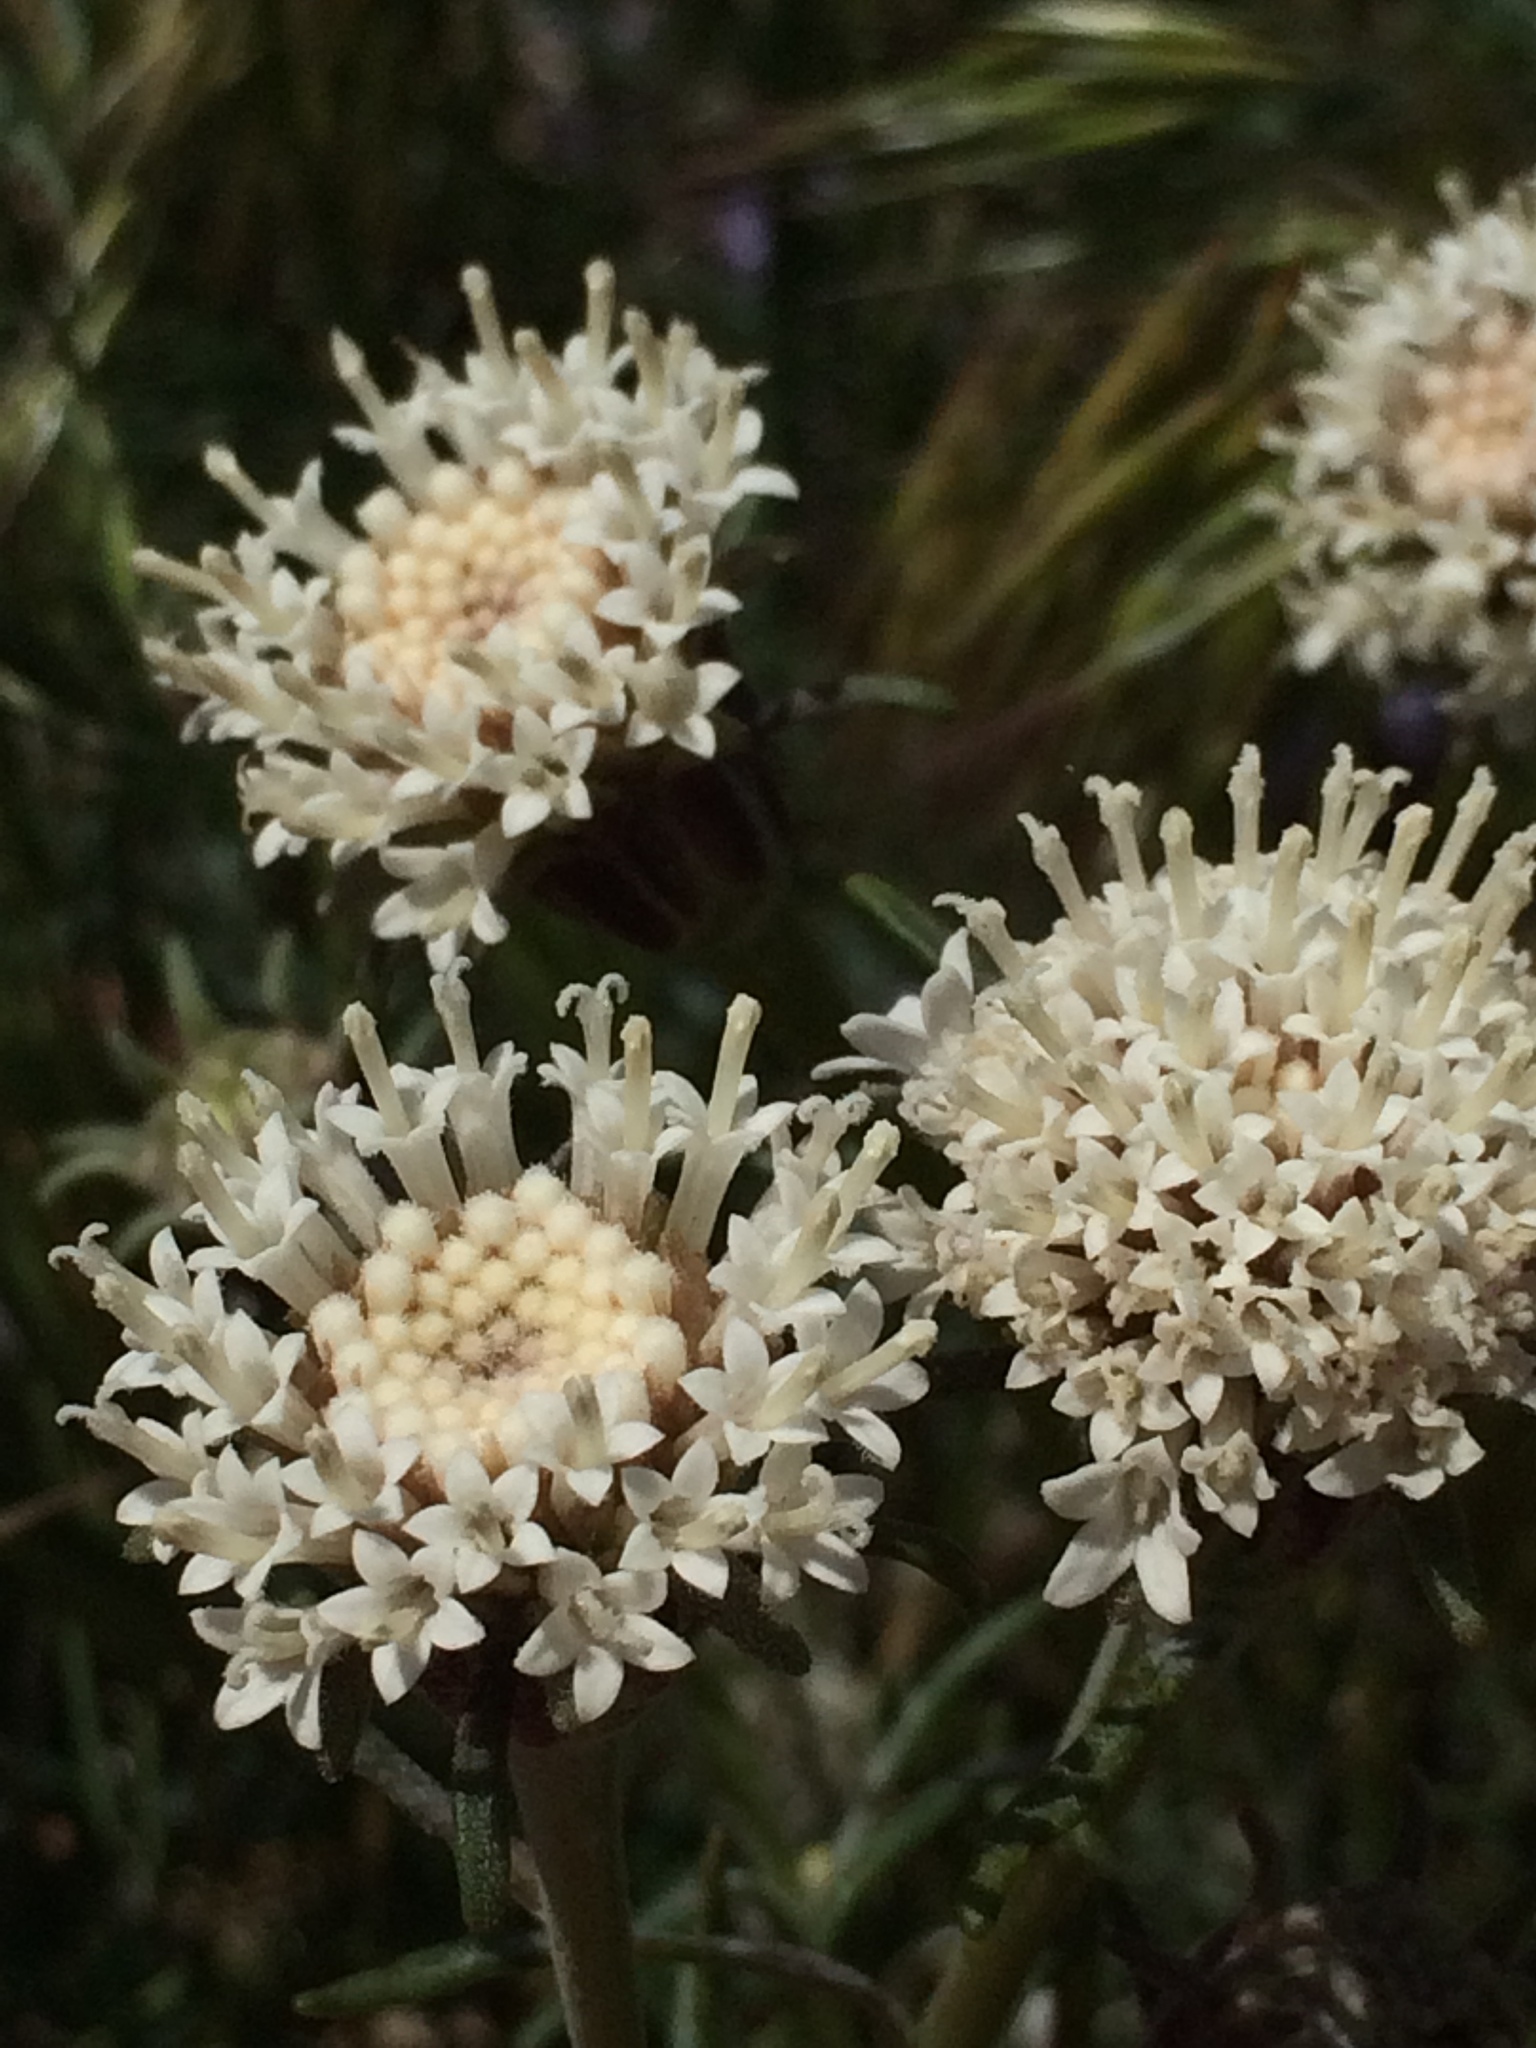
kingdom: Plantae
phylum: Tracheophyta
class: Magnoliopsida
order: Asterales
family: Asteraceae
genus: Chaenactis
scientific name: Chaenactis xantiana
